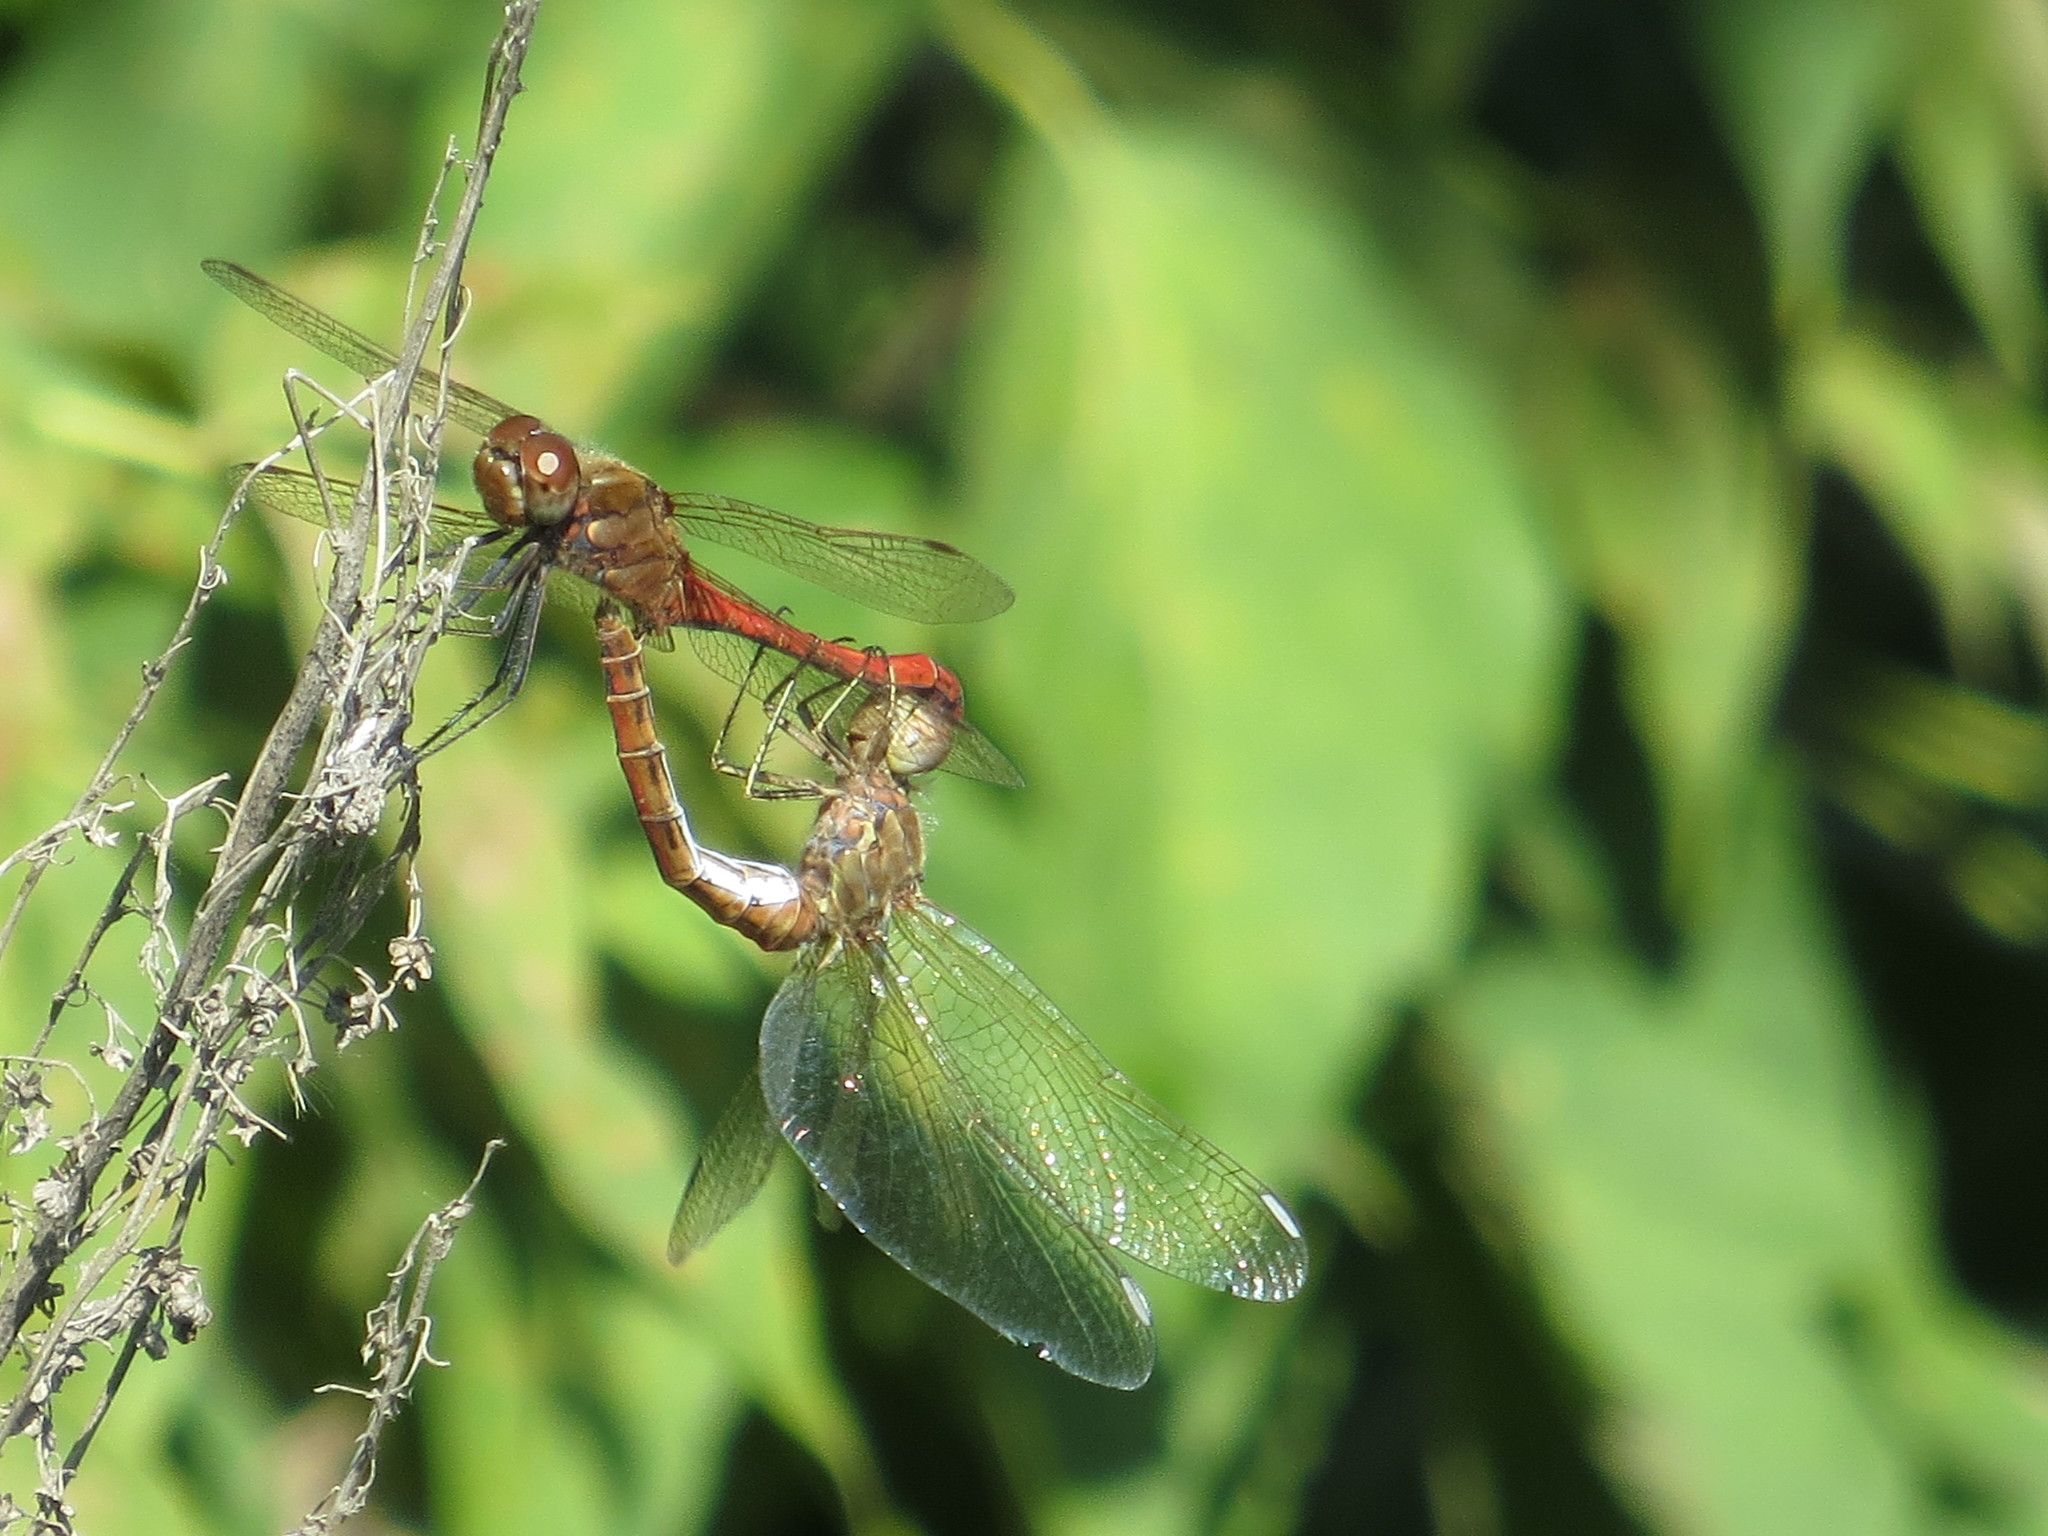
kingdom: Animalia
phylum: Arthropoda
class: Insecta
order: Odonata
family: Libellulidae
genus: Sympetrum
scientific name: Sympetrum vulgatum
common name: Vagrant darter
